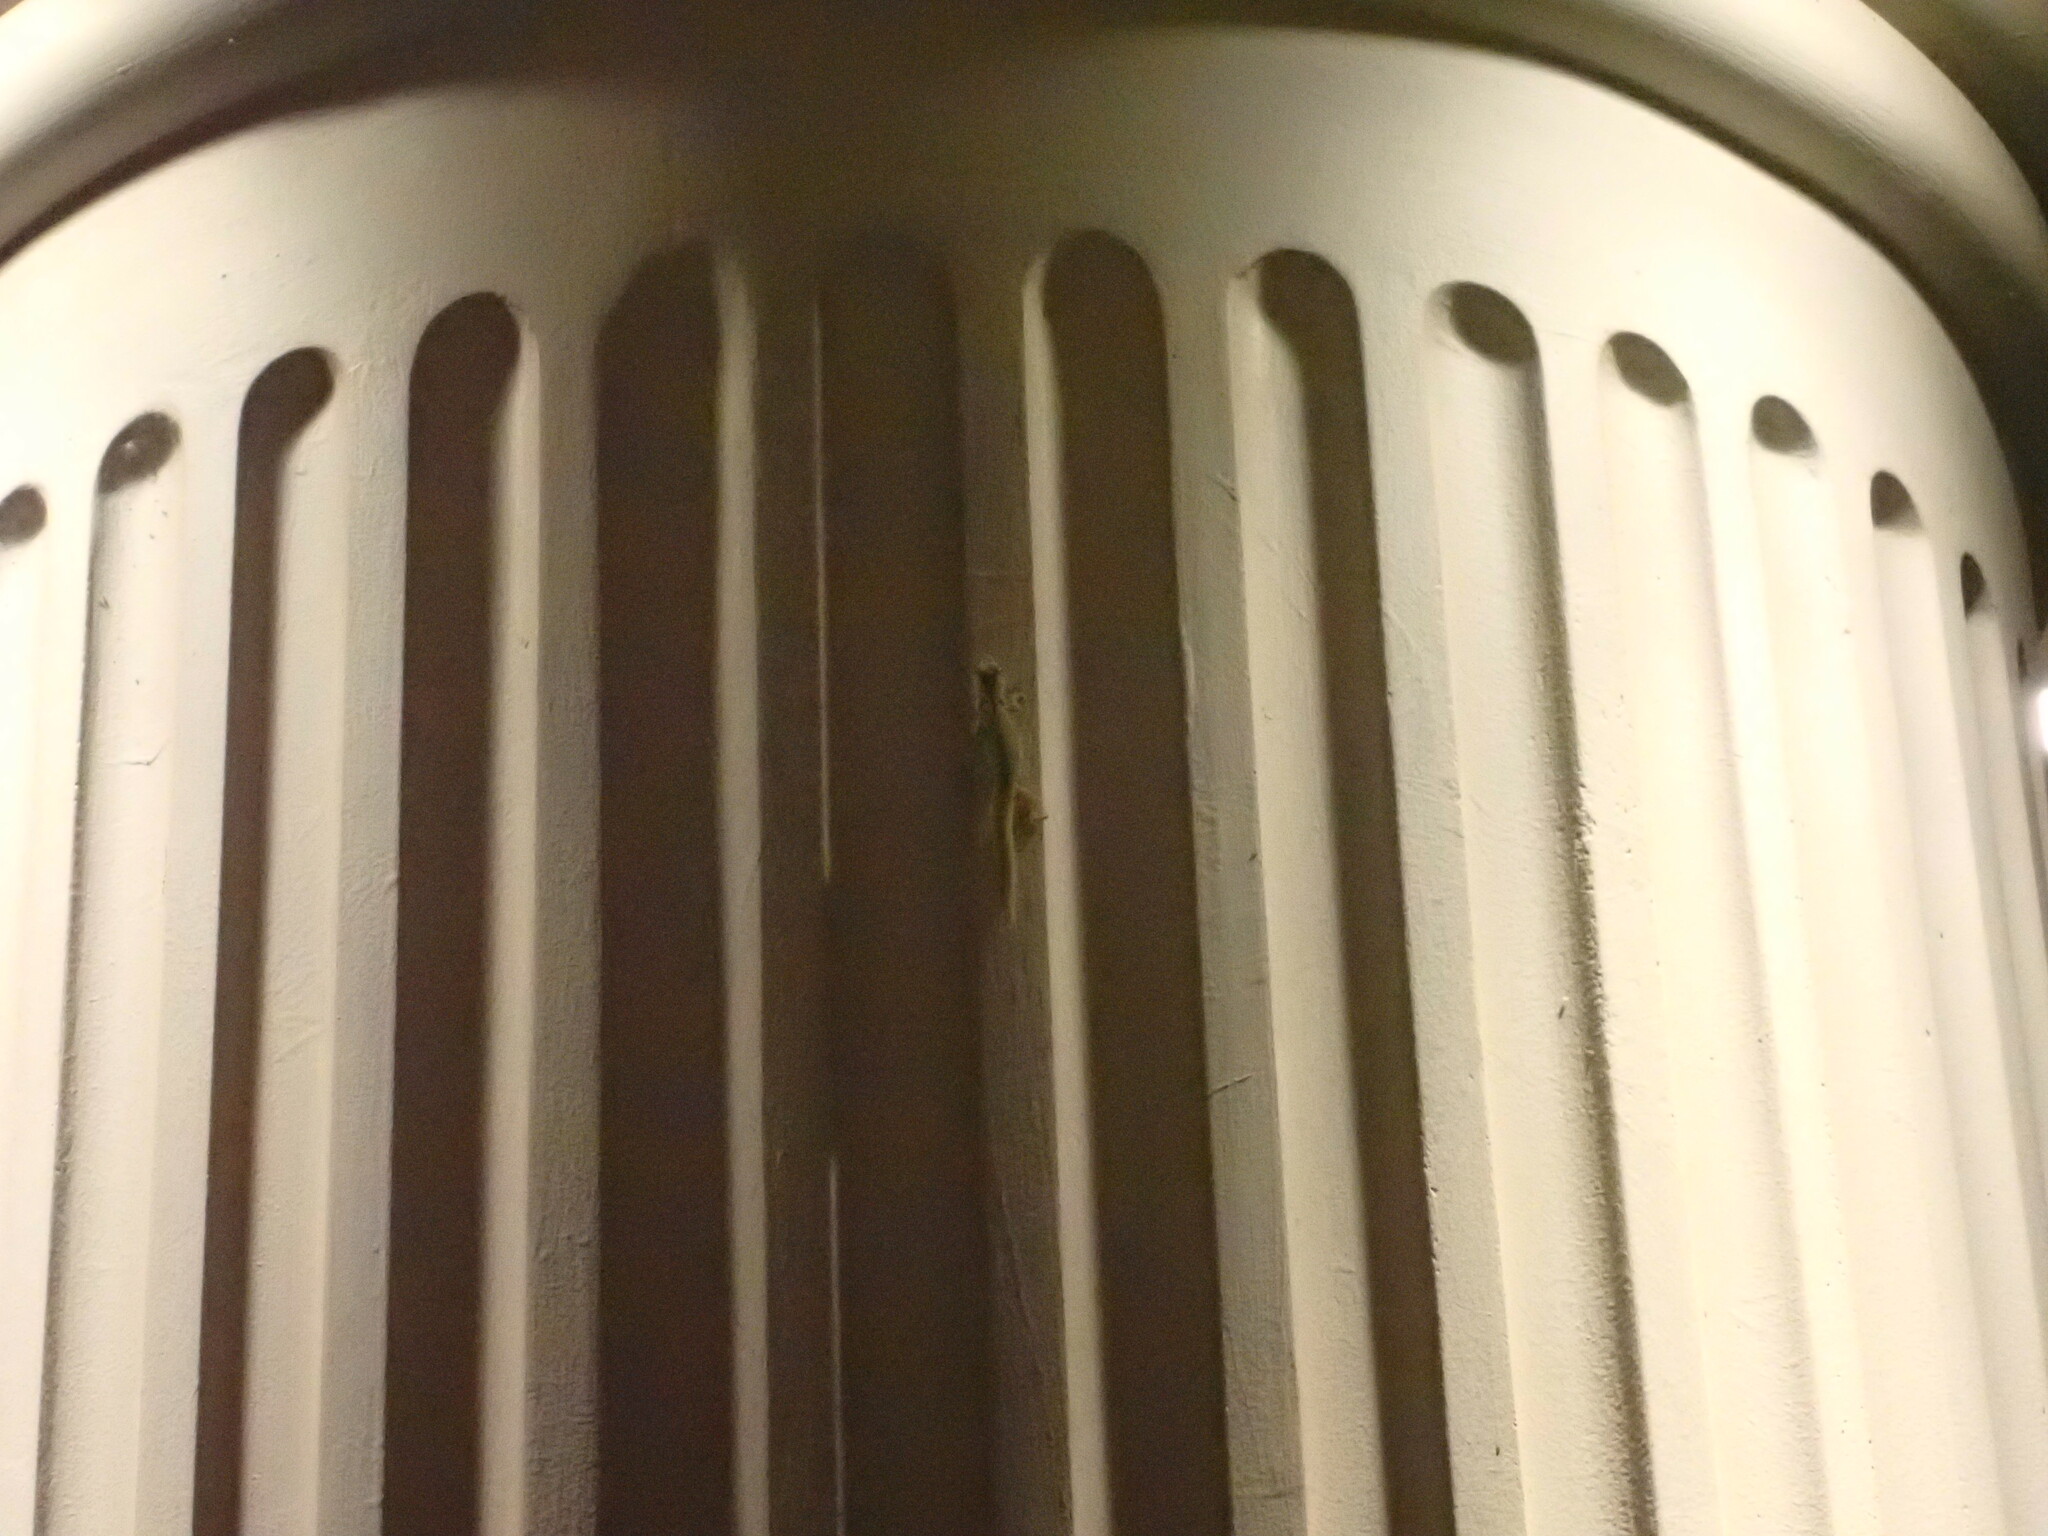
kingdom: Animalia
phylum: Chordata
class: Squamata
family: Gekkonidae
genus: Phelsuma
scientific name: Phelsuma laticauda
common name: Gold dust day gecko
